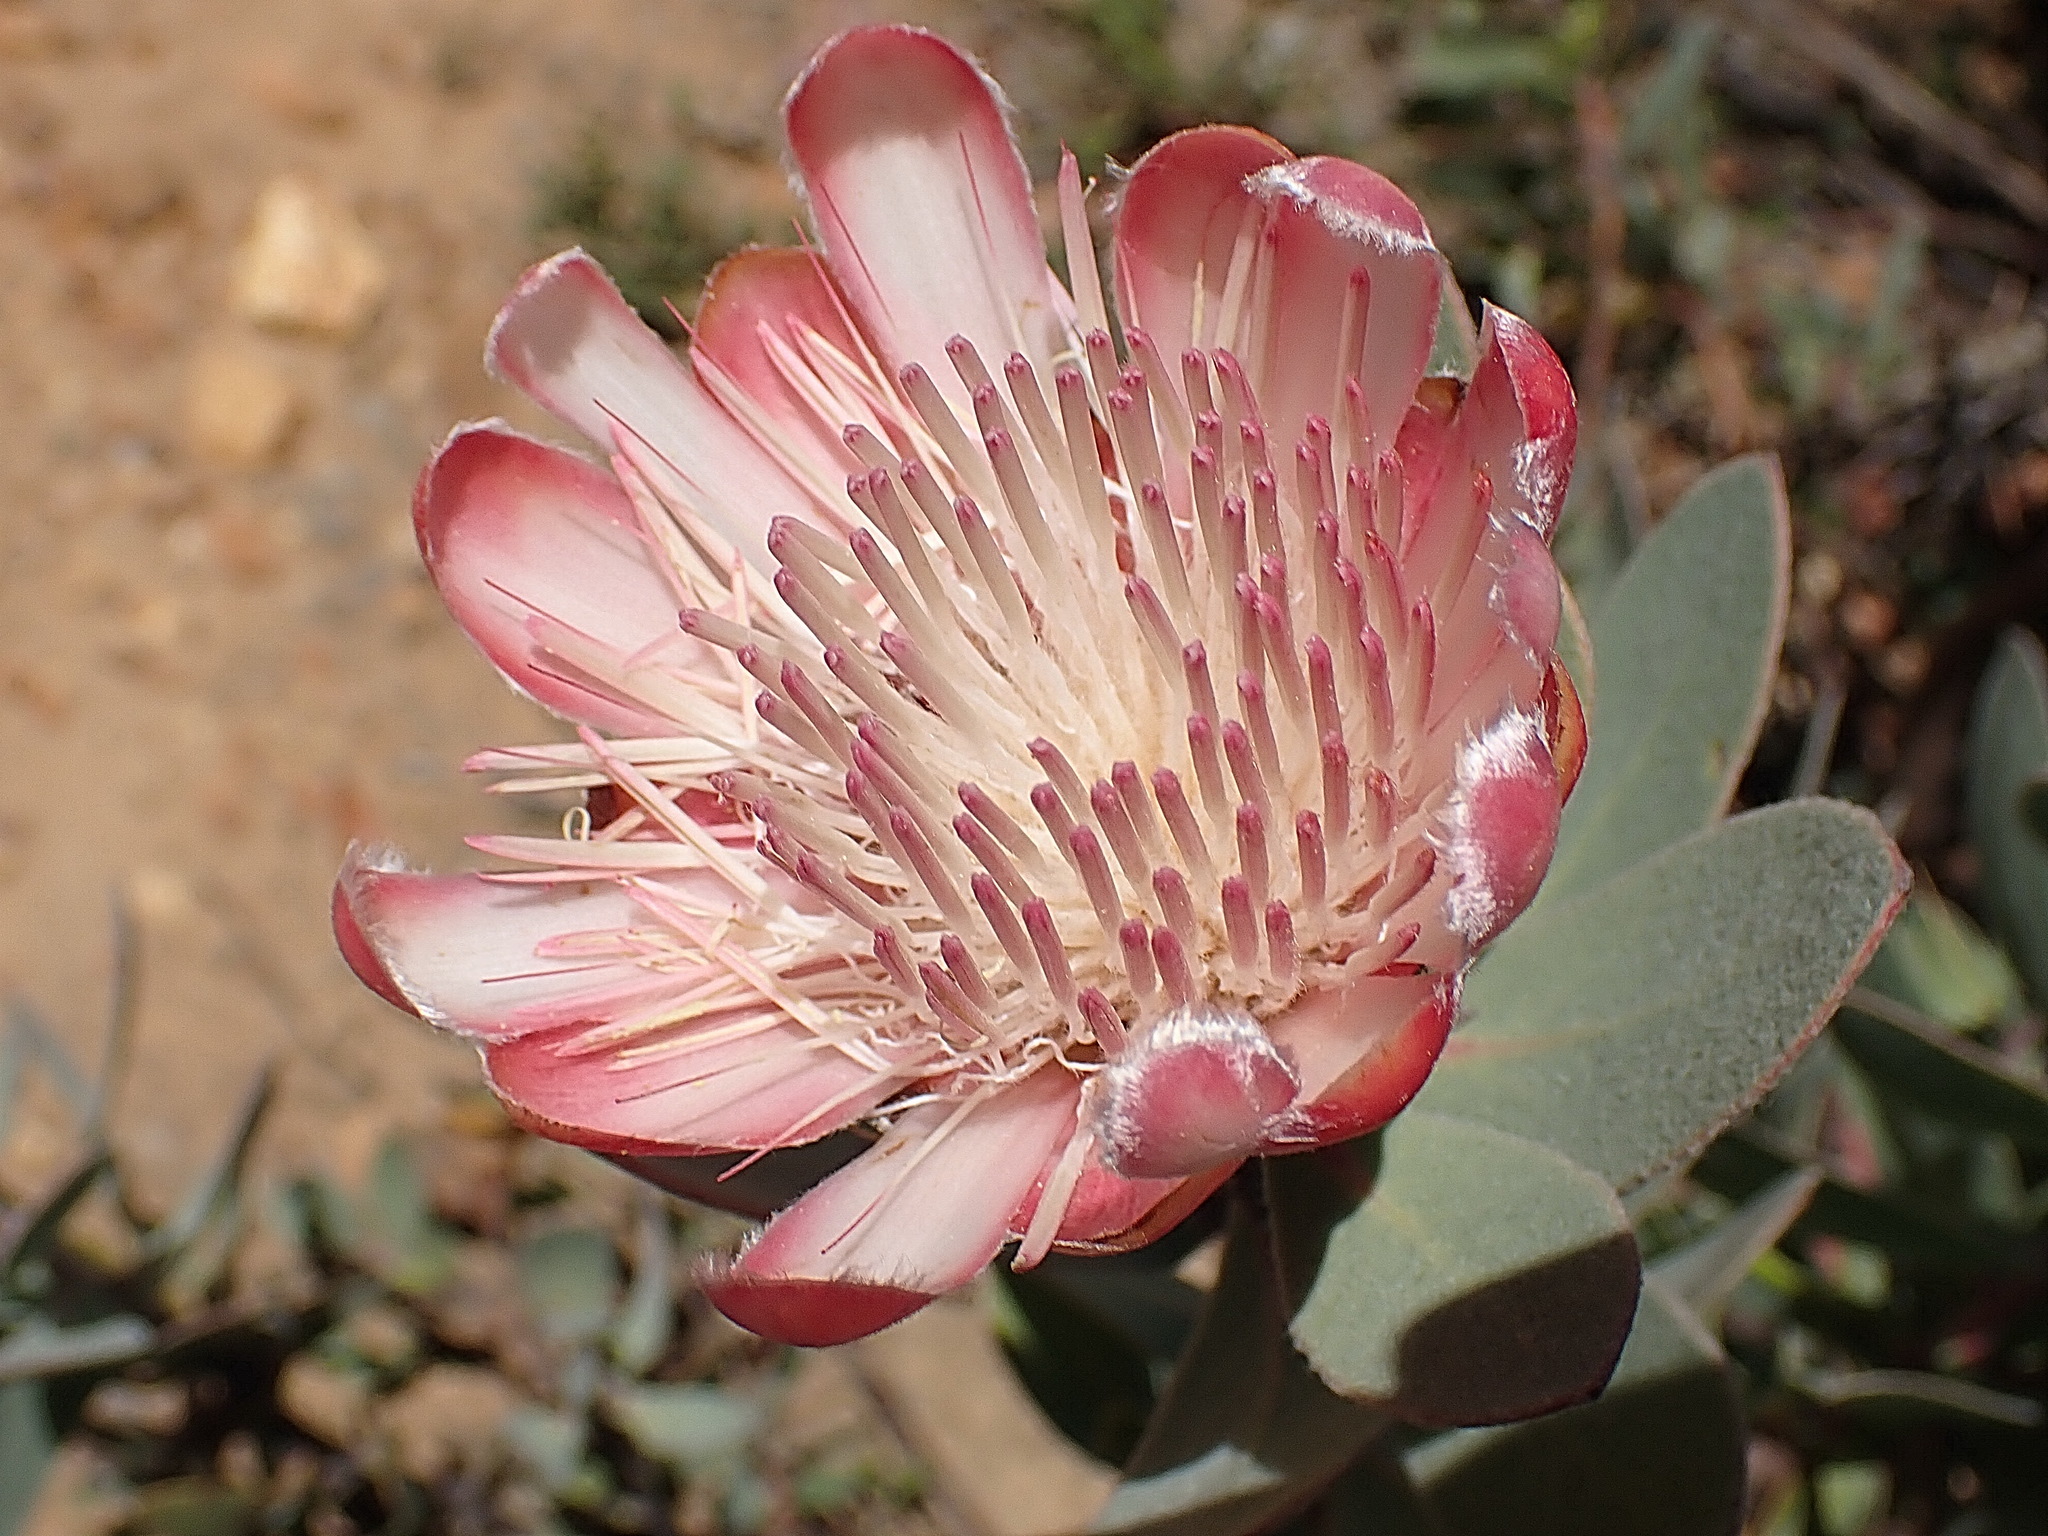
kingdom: Plantae
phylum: Tracheophyta
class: Magnoliopsida
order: Proteales
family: Proteaceae
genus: Protea
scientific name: Protea punctata
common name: Water sugarbush
